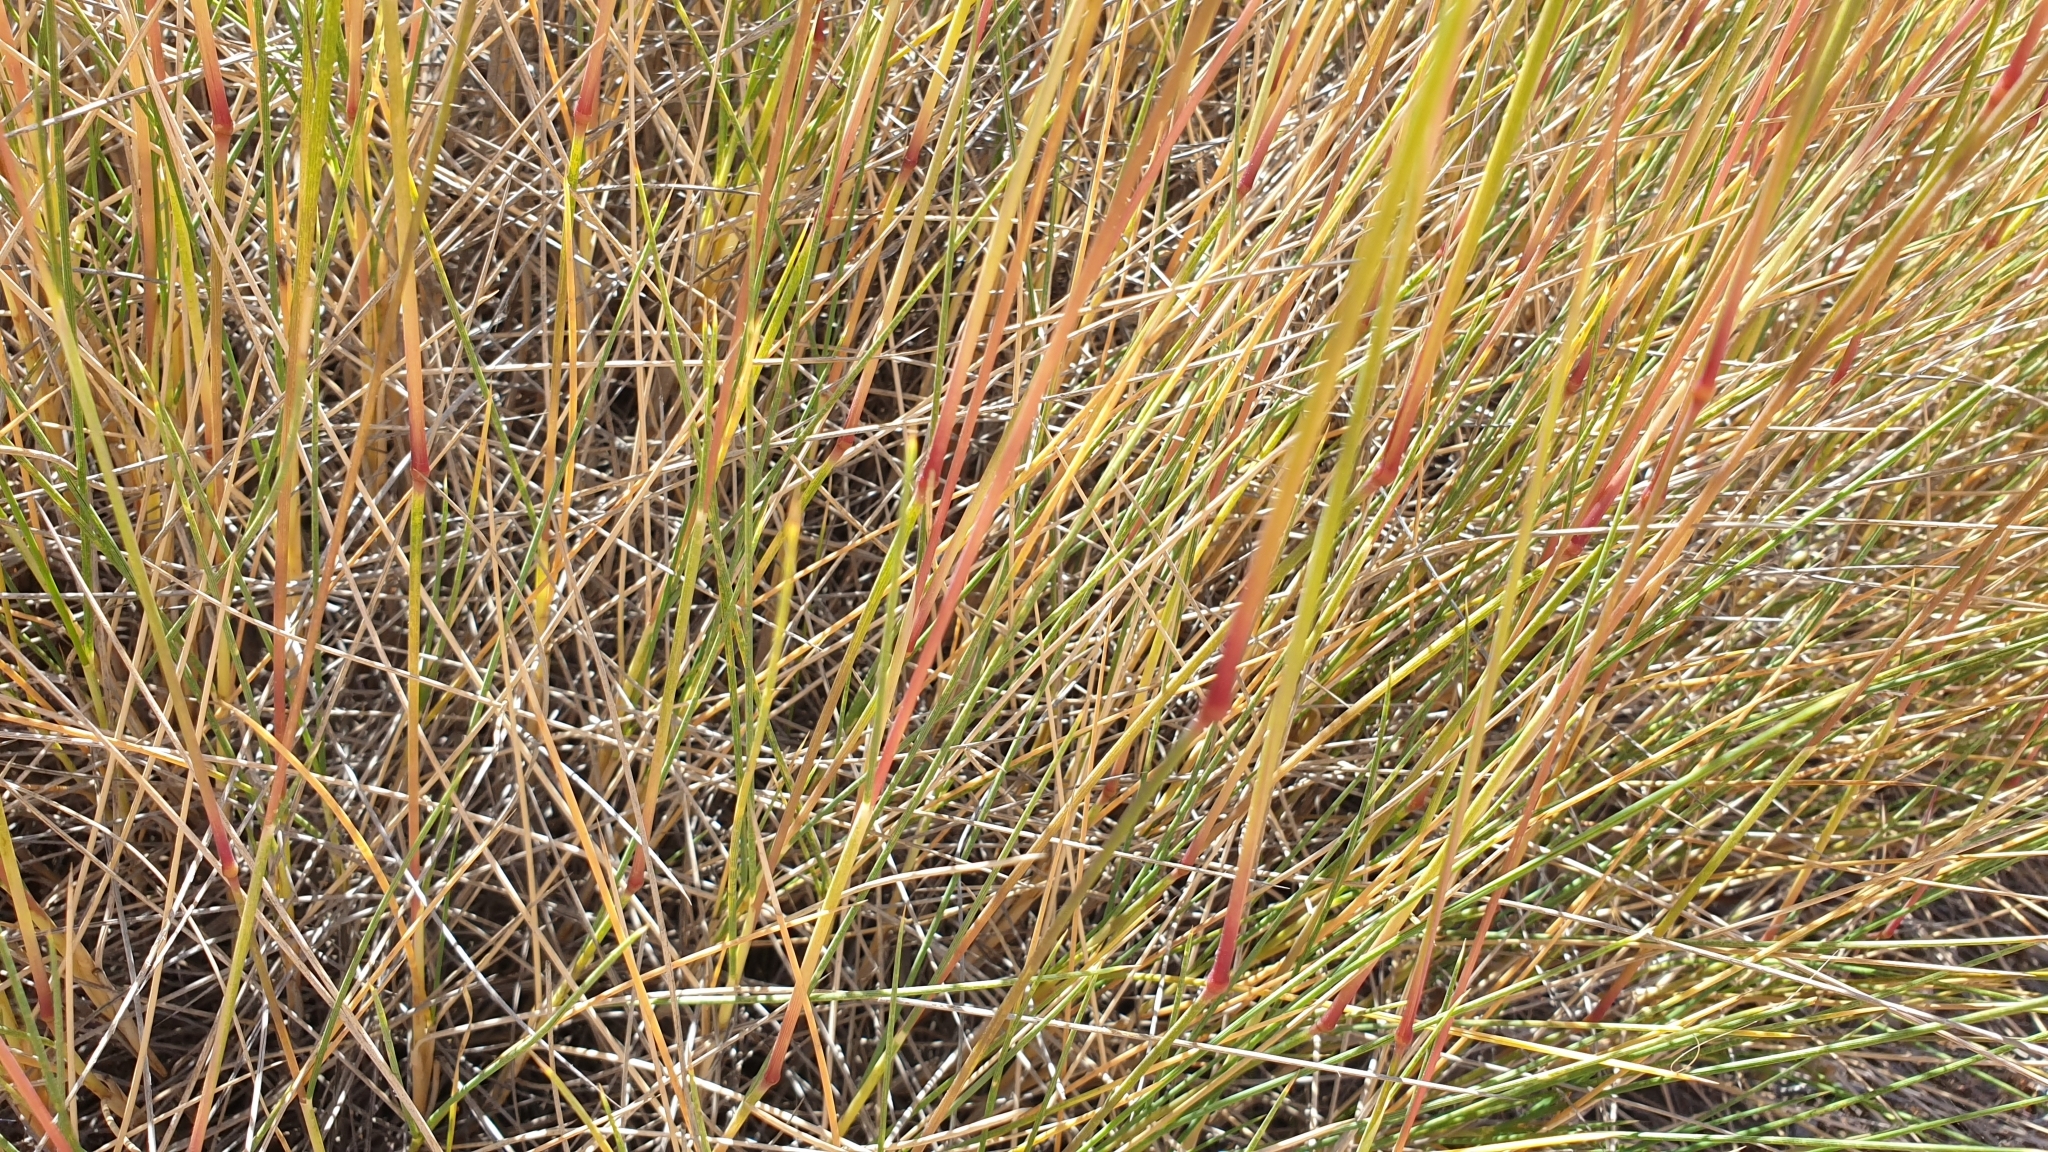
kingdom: Plantae
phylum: Tracheophyta
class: Liliopsida
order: Poales
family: Poaceae
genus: Triodia
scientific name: Triodia scariosa
